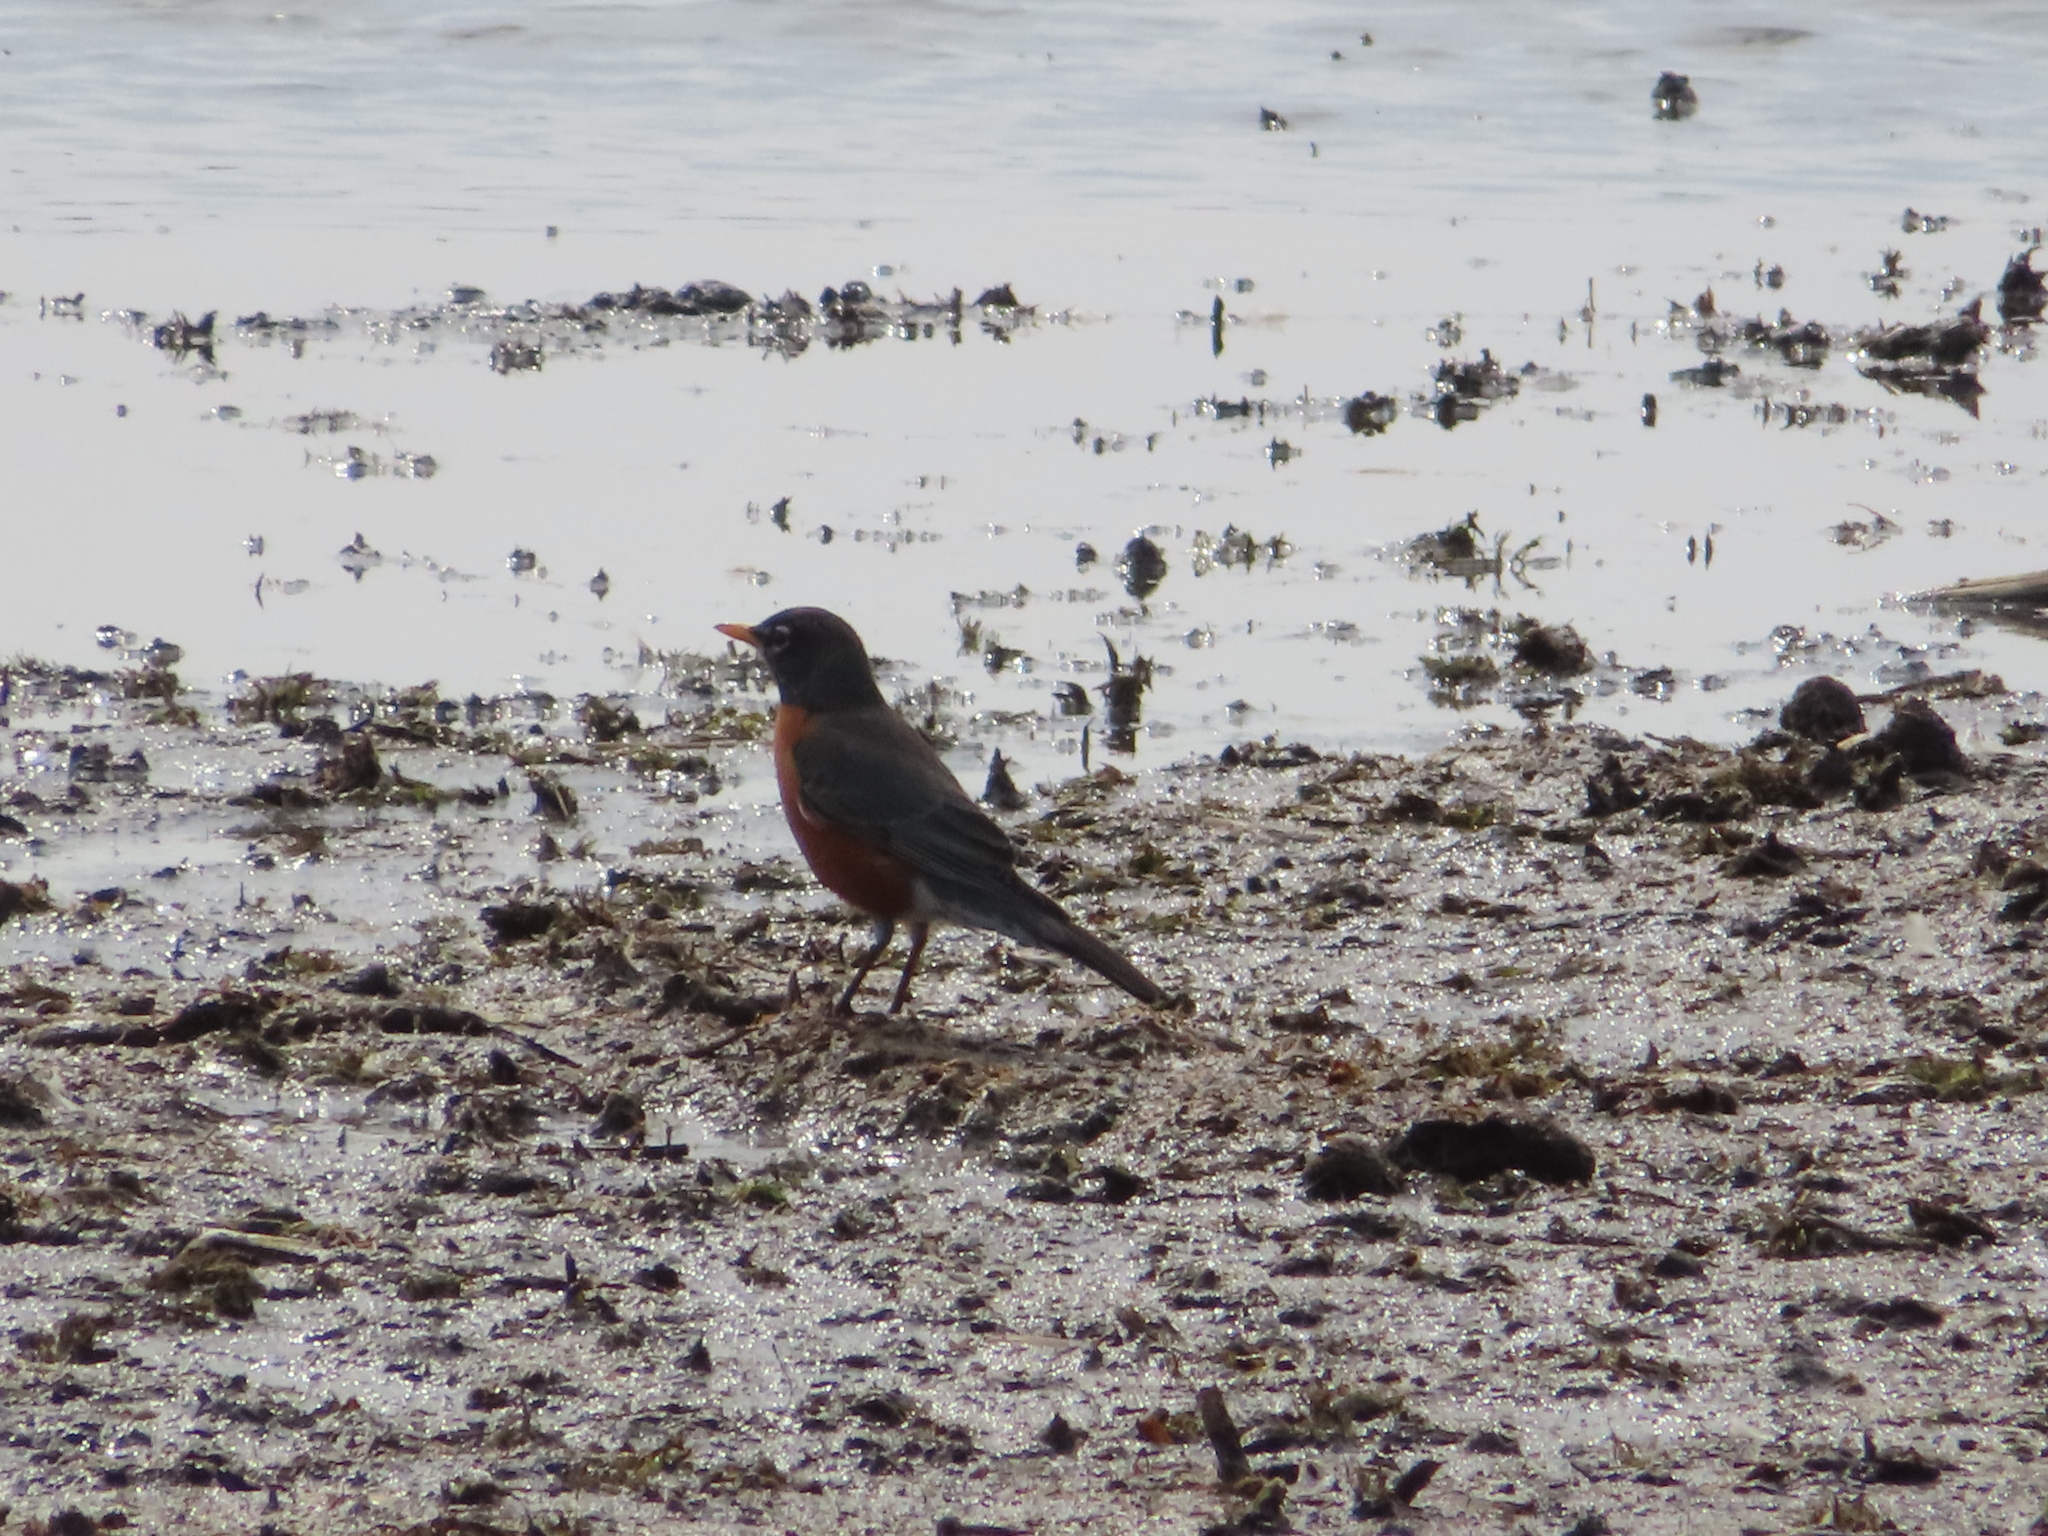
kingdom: Animalia
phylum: Chordata
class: Aves
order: Passeriformes
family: Turdidae
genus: Turdus
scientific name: Turdus migratorius
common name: American robin
